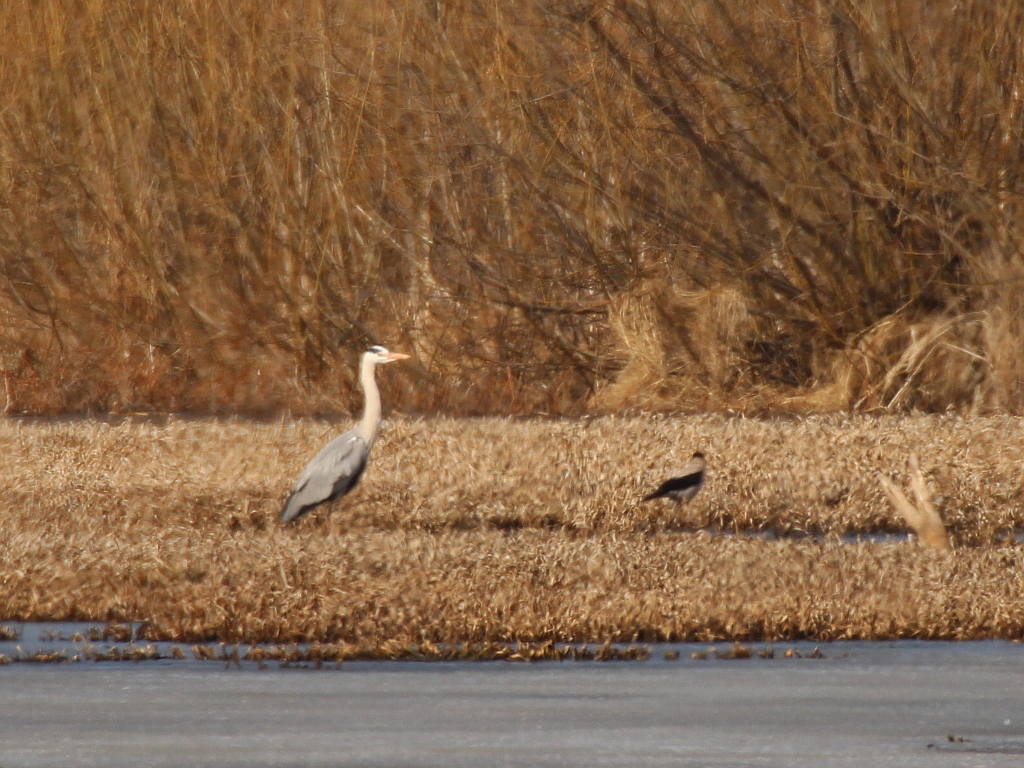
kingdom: Animalia
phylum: Chordata
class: Aves
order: Pelecaniformes
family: Ardeidae
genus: Ardea
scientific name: Ardea cinerea
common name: Grey heron
